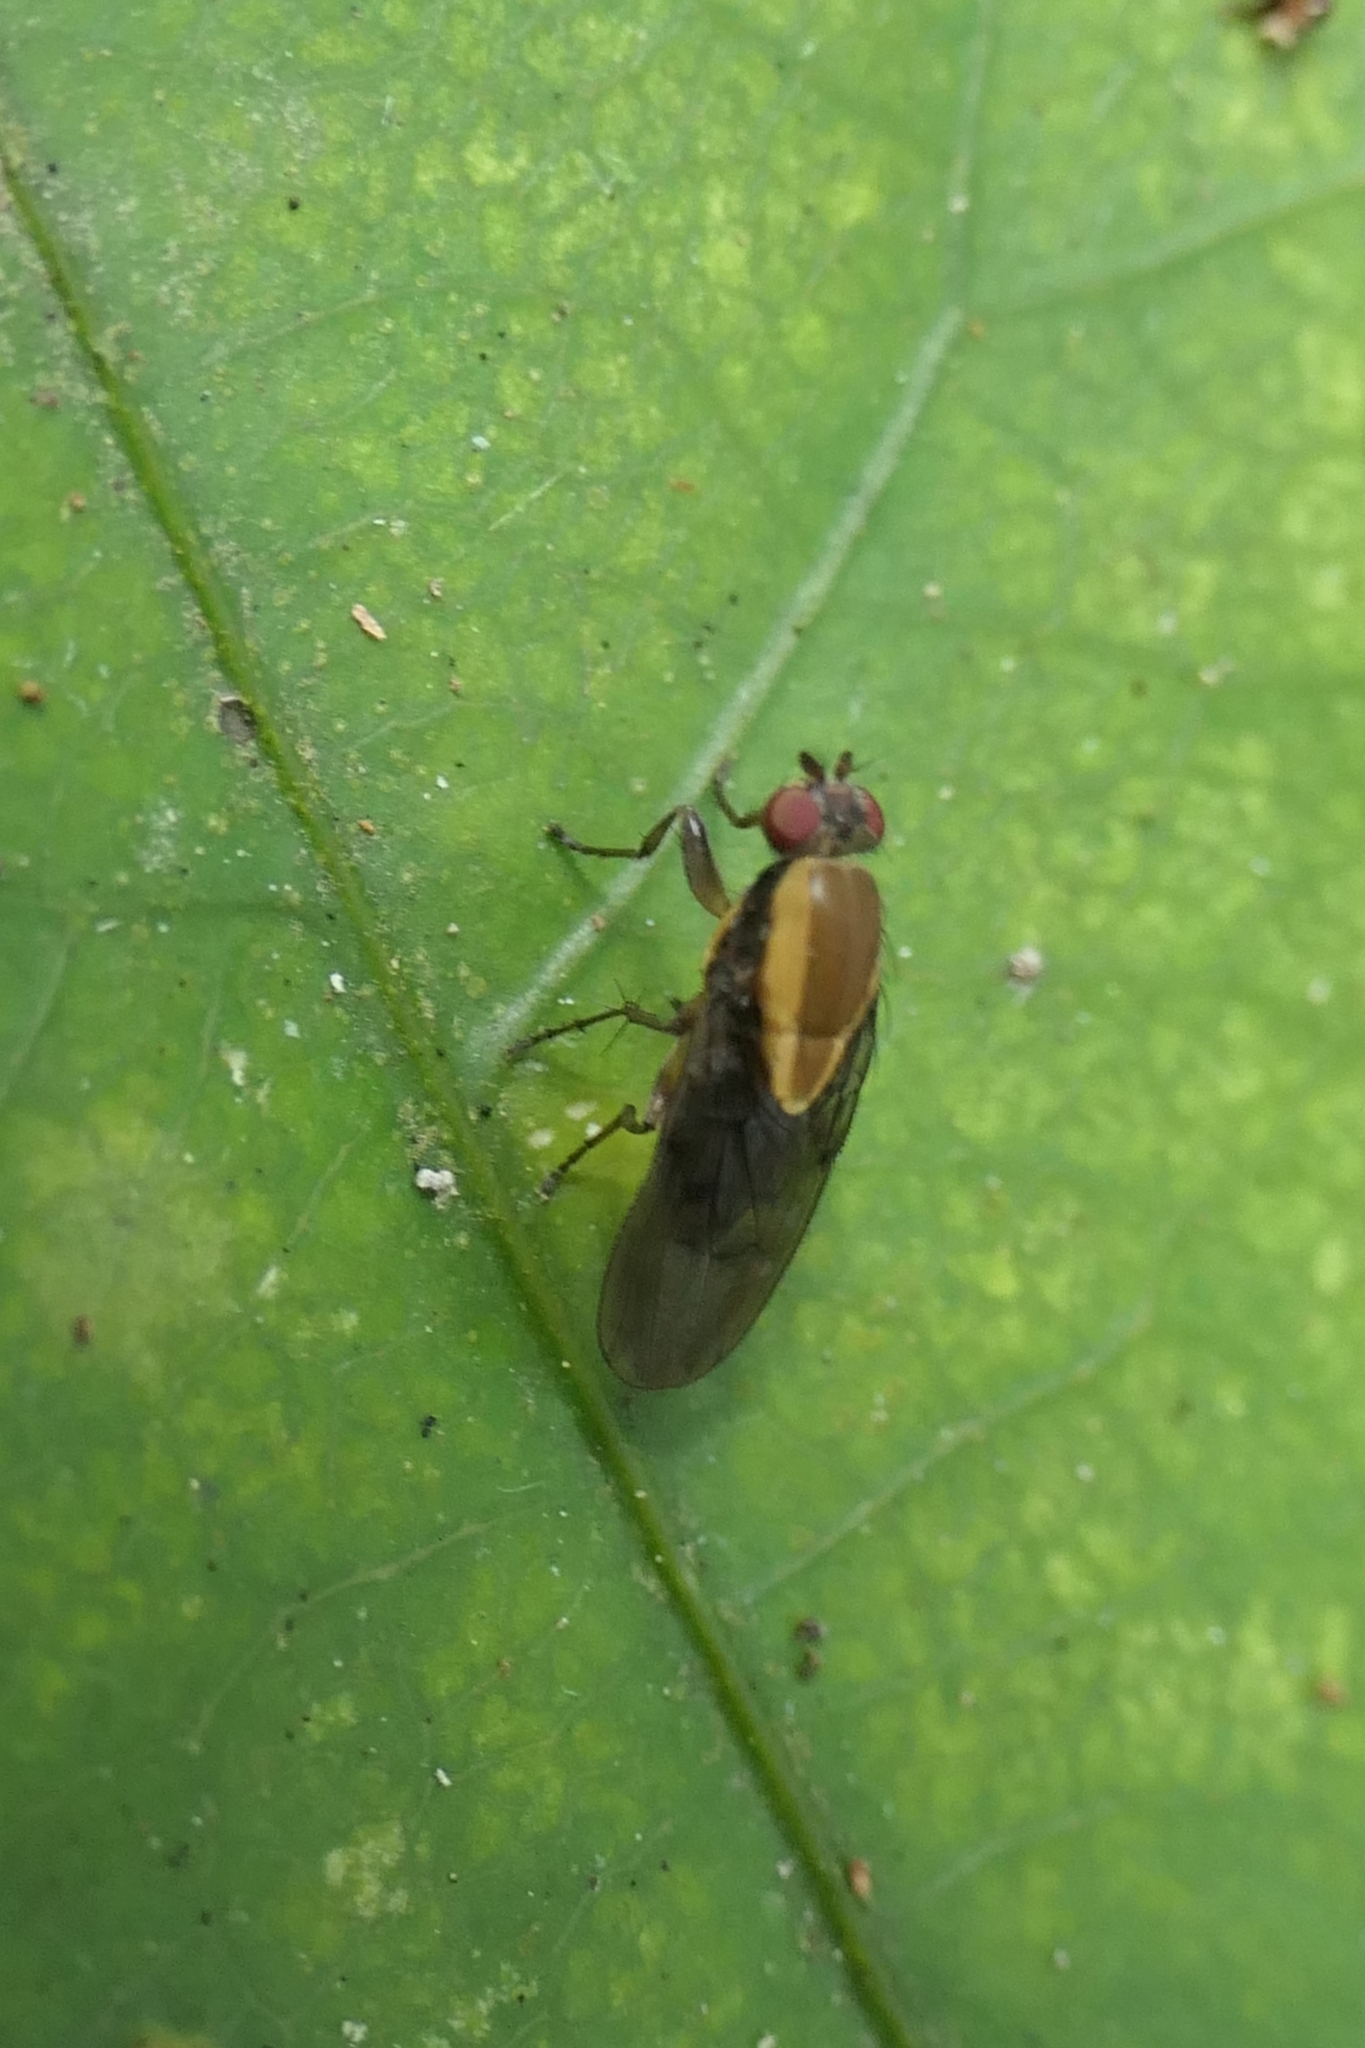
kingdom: Animalia
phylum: Arthropoda
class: Insecta
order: Diptera
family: Heleomyzidae
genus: Allophylopsis
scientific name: Allophylopsis scutellata
